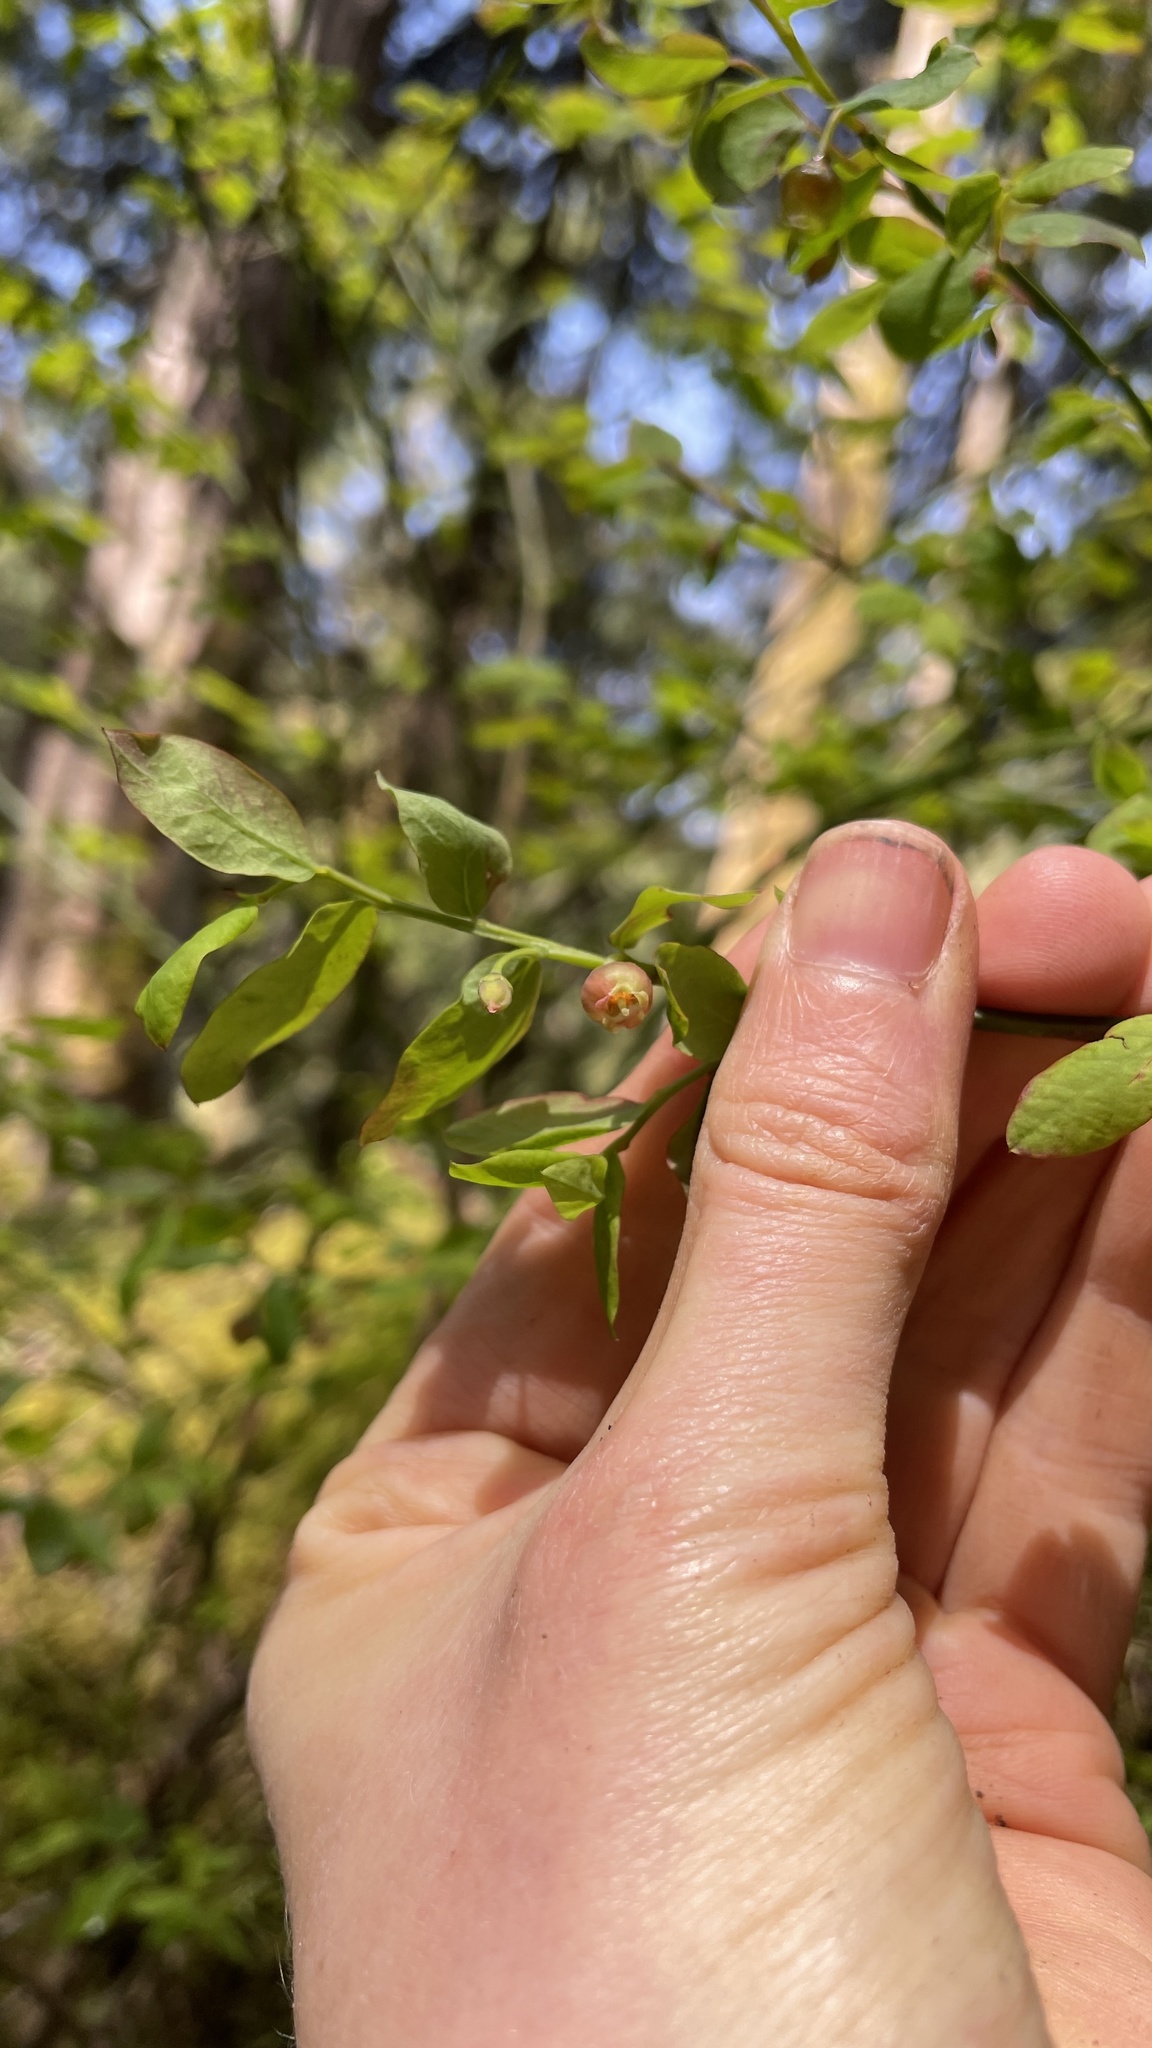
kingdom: Plantae
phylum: Tracheophyta
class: Magnoliopsida
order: Ericales
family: Ericaceae
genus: Vaccinium
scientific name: Vaccinium parvifolium
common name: Red-huckleberry
